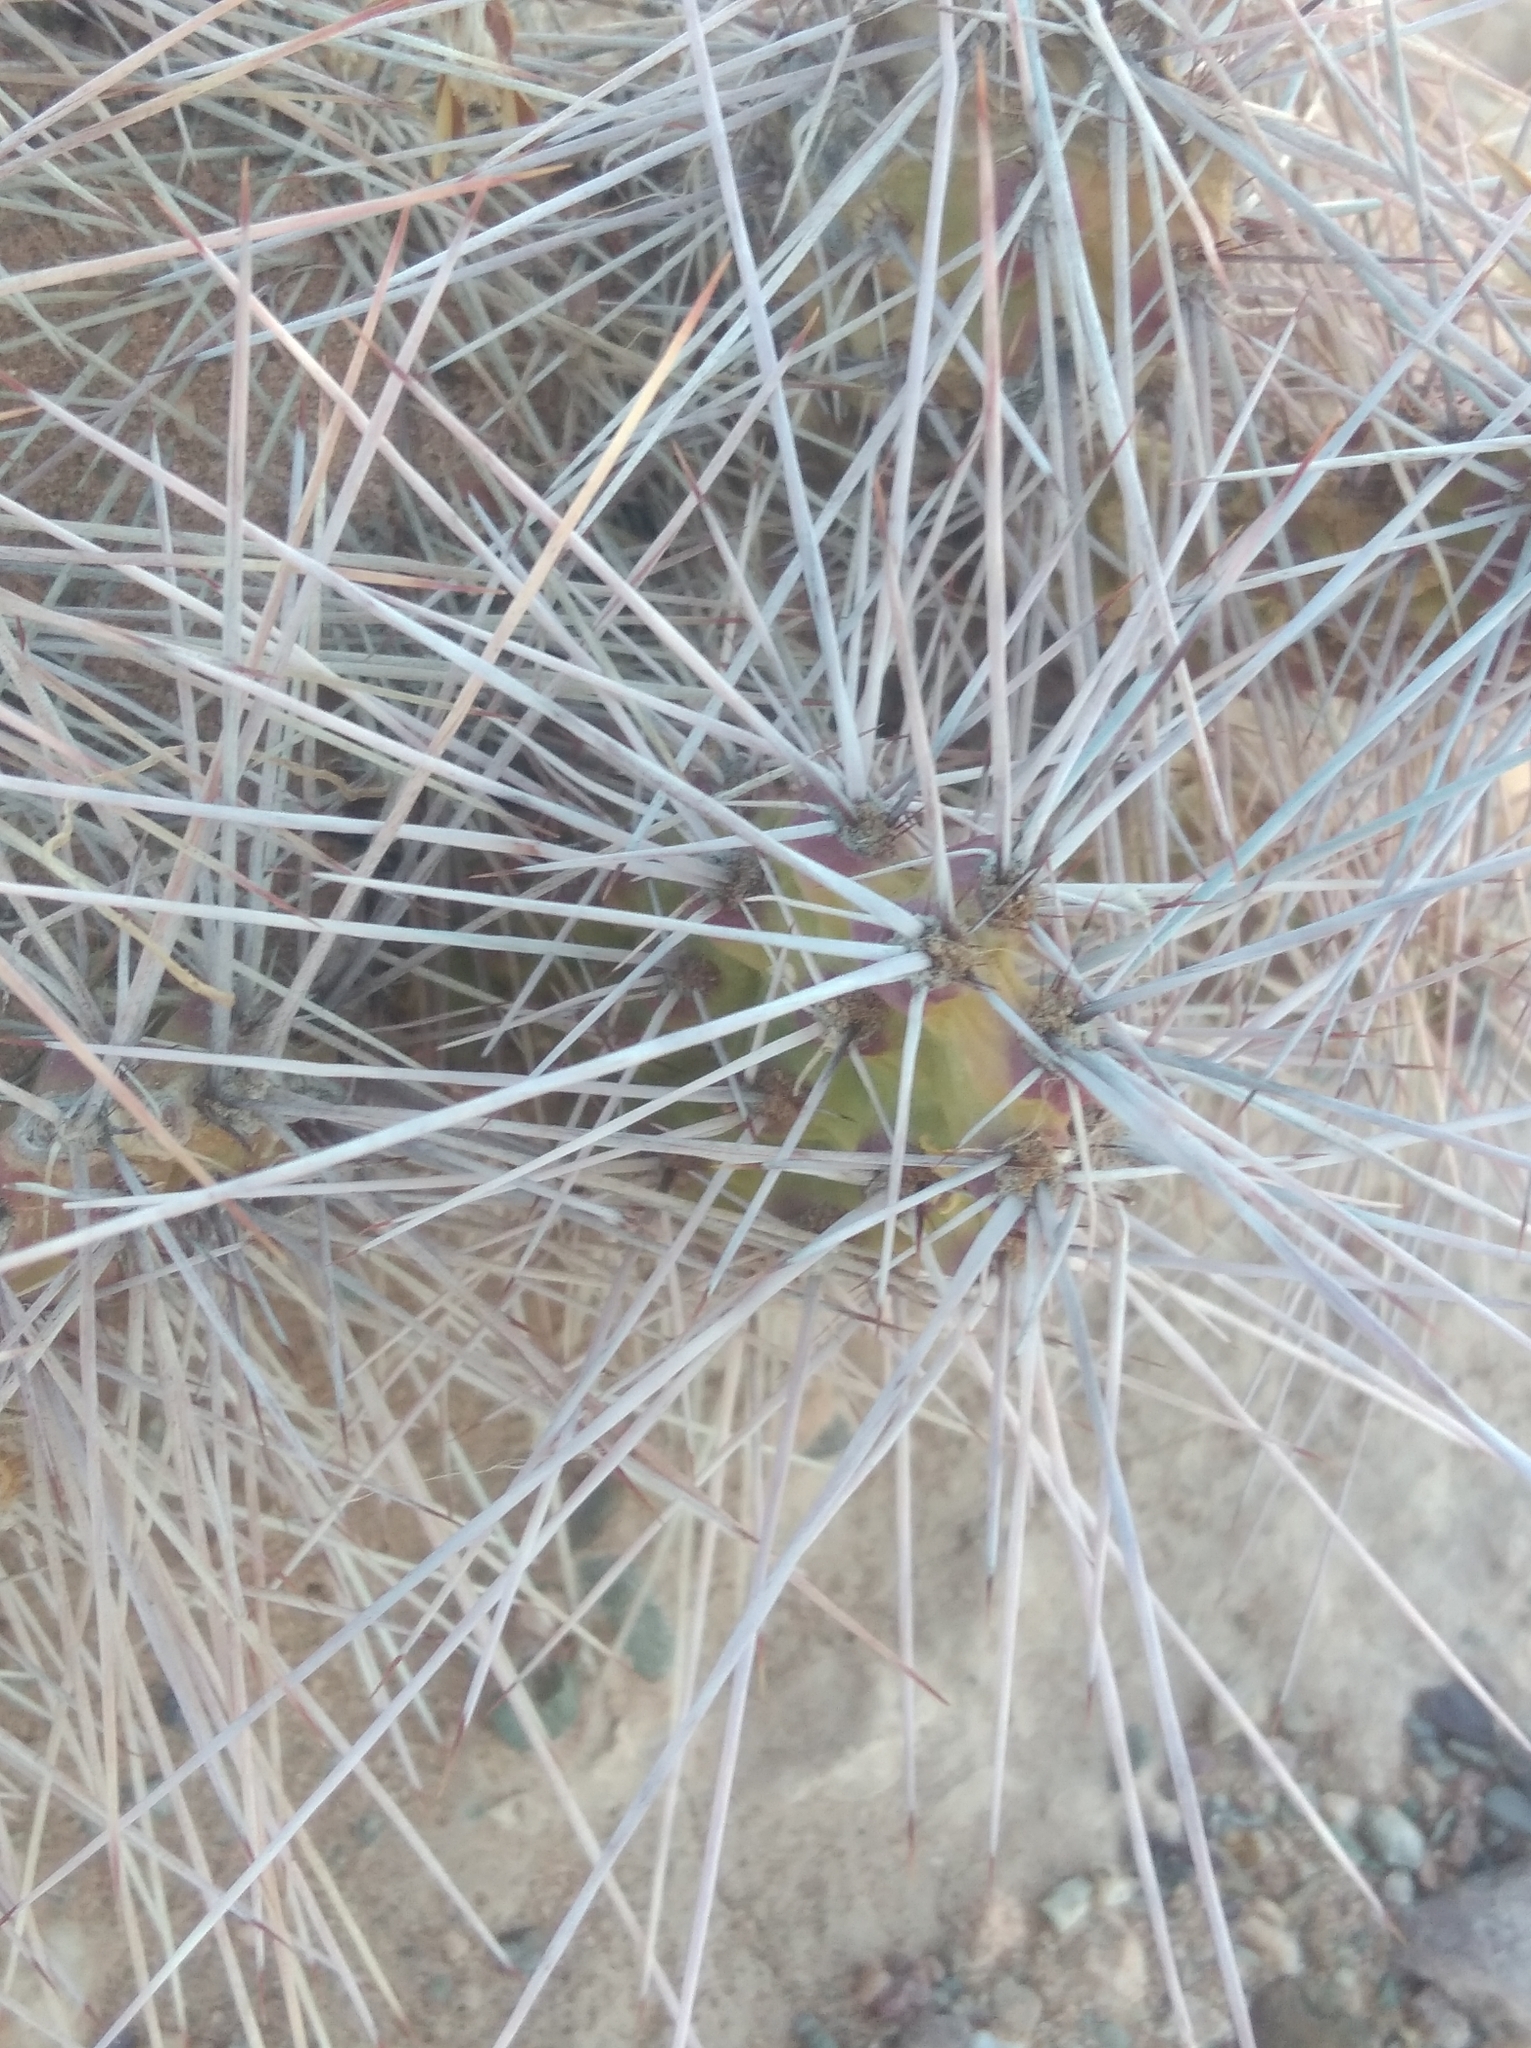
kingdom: Plantae
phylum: Tracheophyta
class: Magnoliopsida
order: Caryophyllales
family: Cactaceae
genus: Airampoa
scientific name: Airampoa soehrensii
